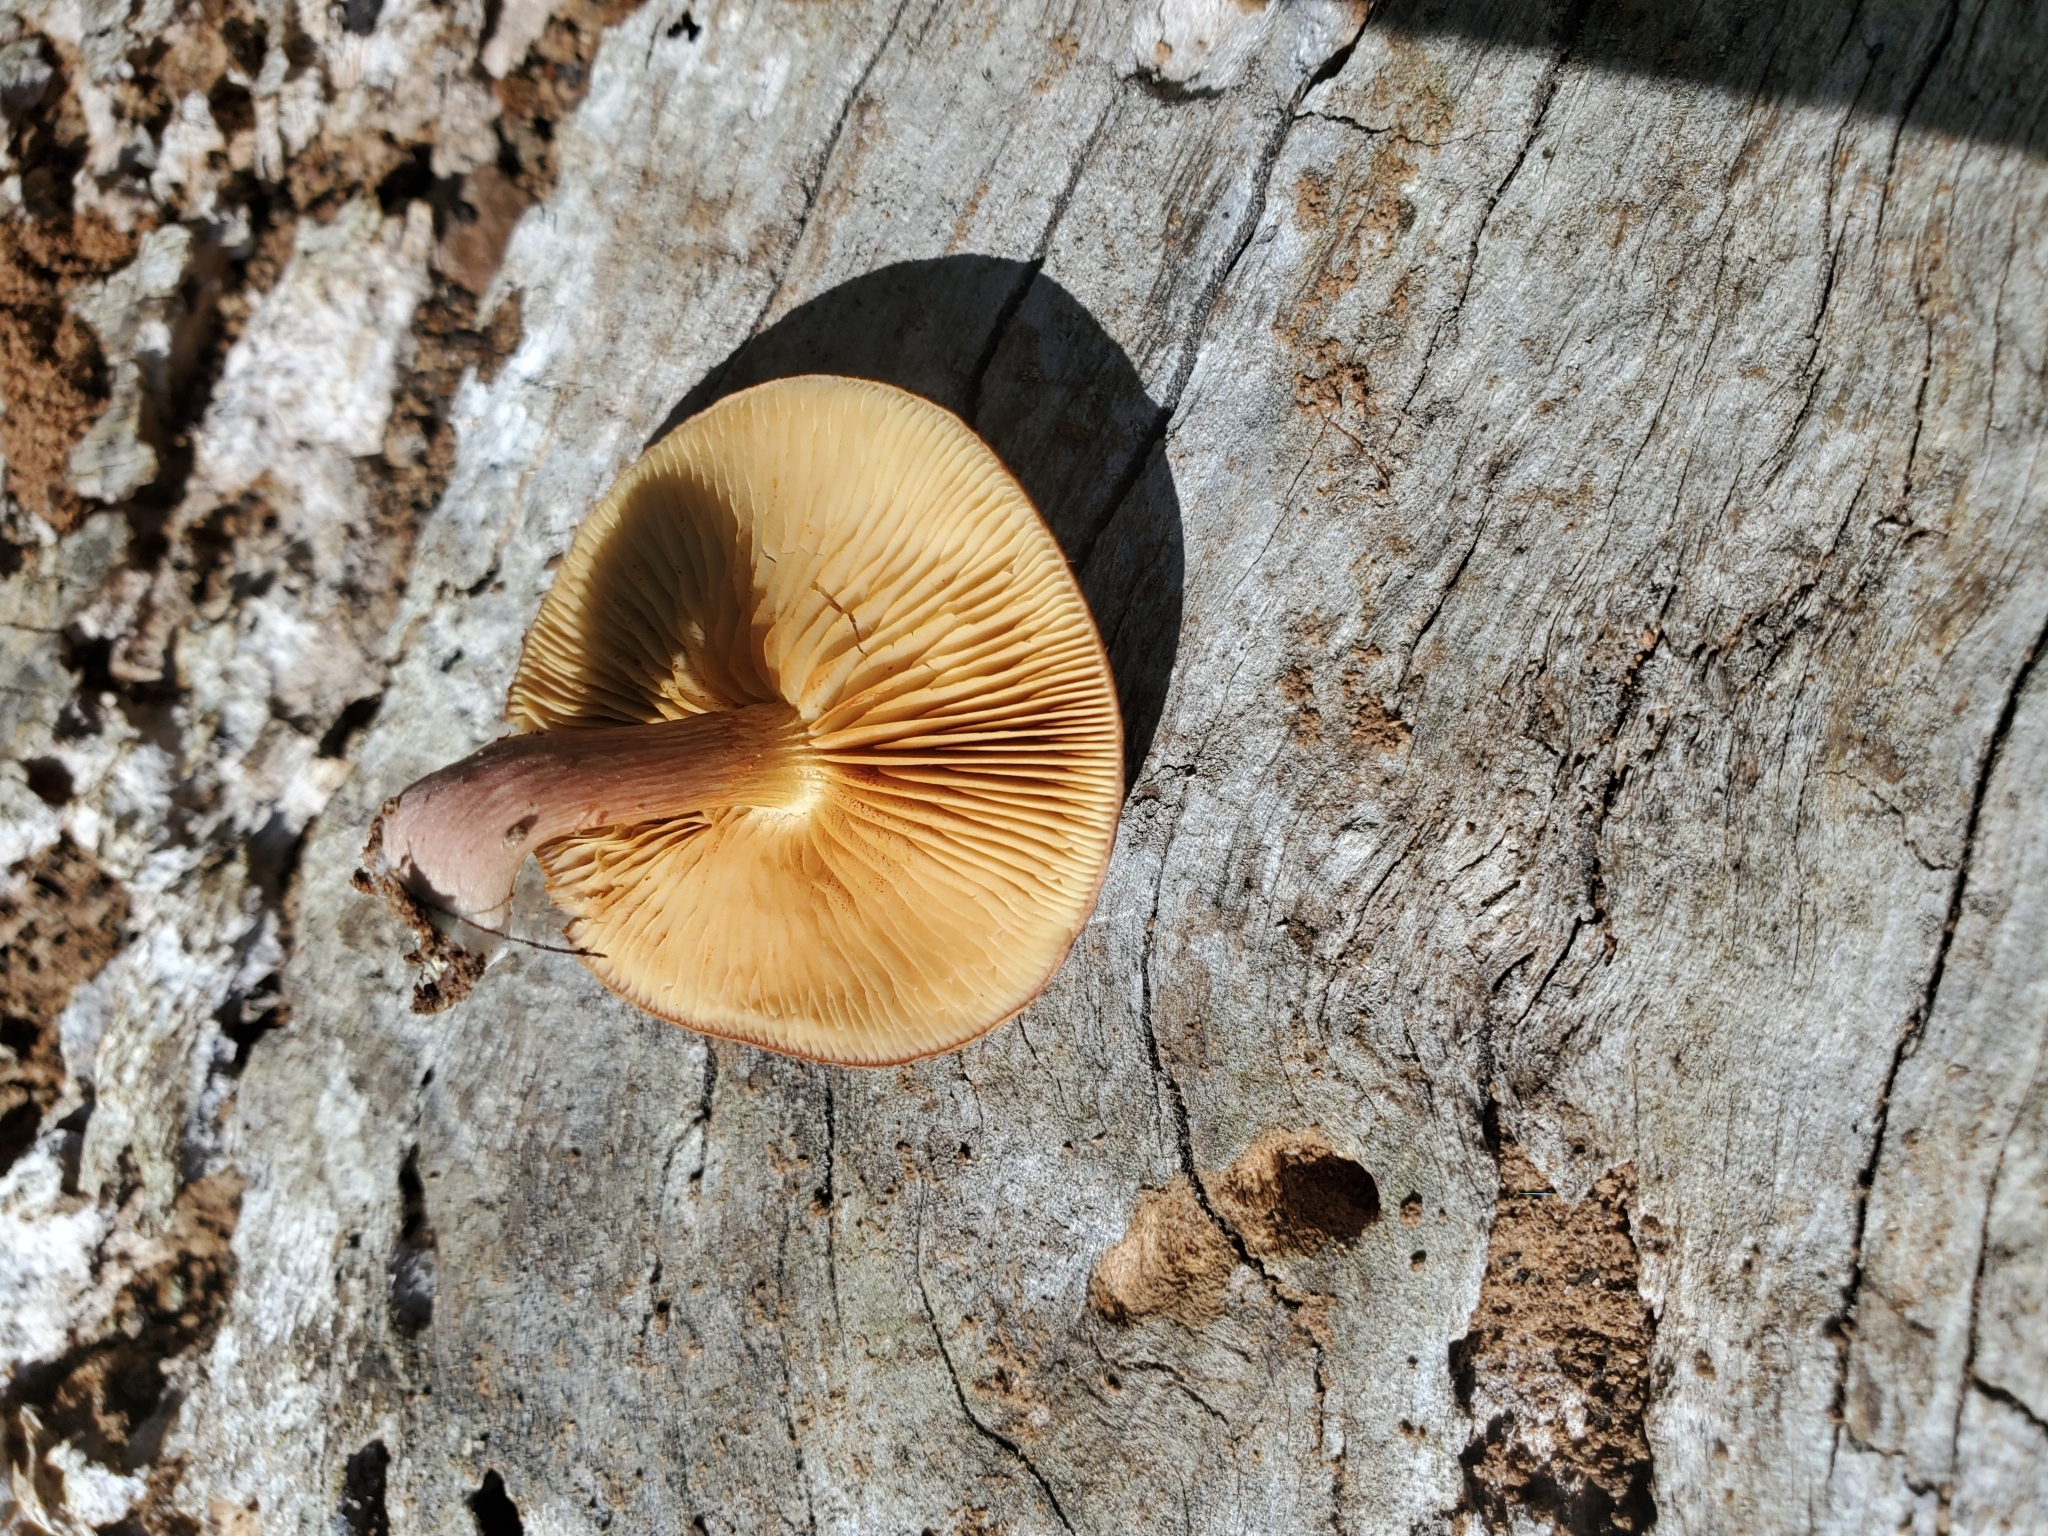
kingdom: Fungi
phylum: Basidiomycota
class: Agaricomycetes
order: Agaricales
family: Hymenogastraceae
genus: Gymnopilus
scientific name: Gymnopilus purpuratus
